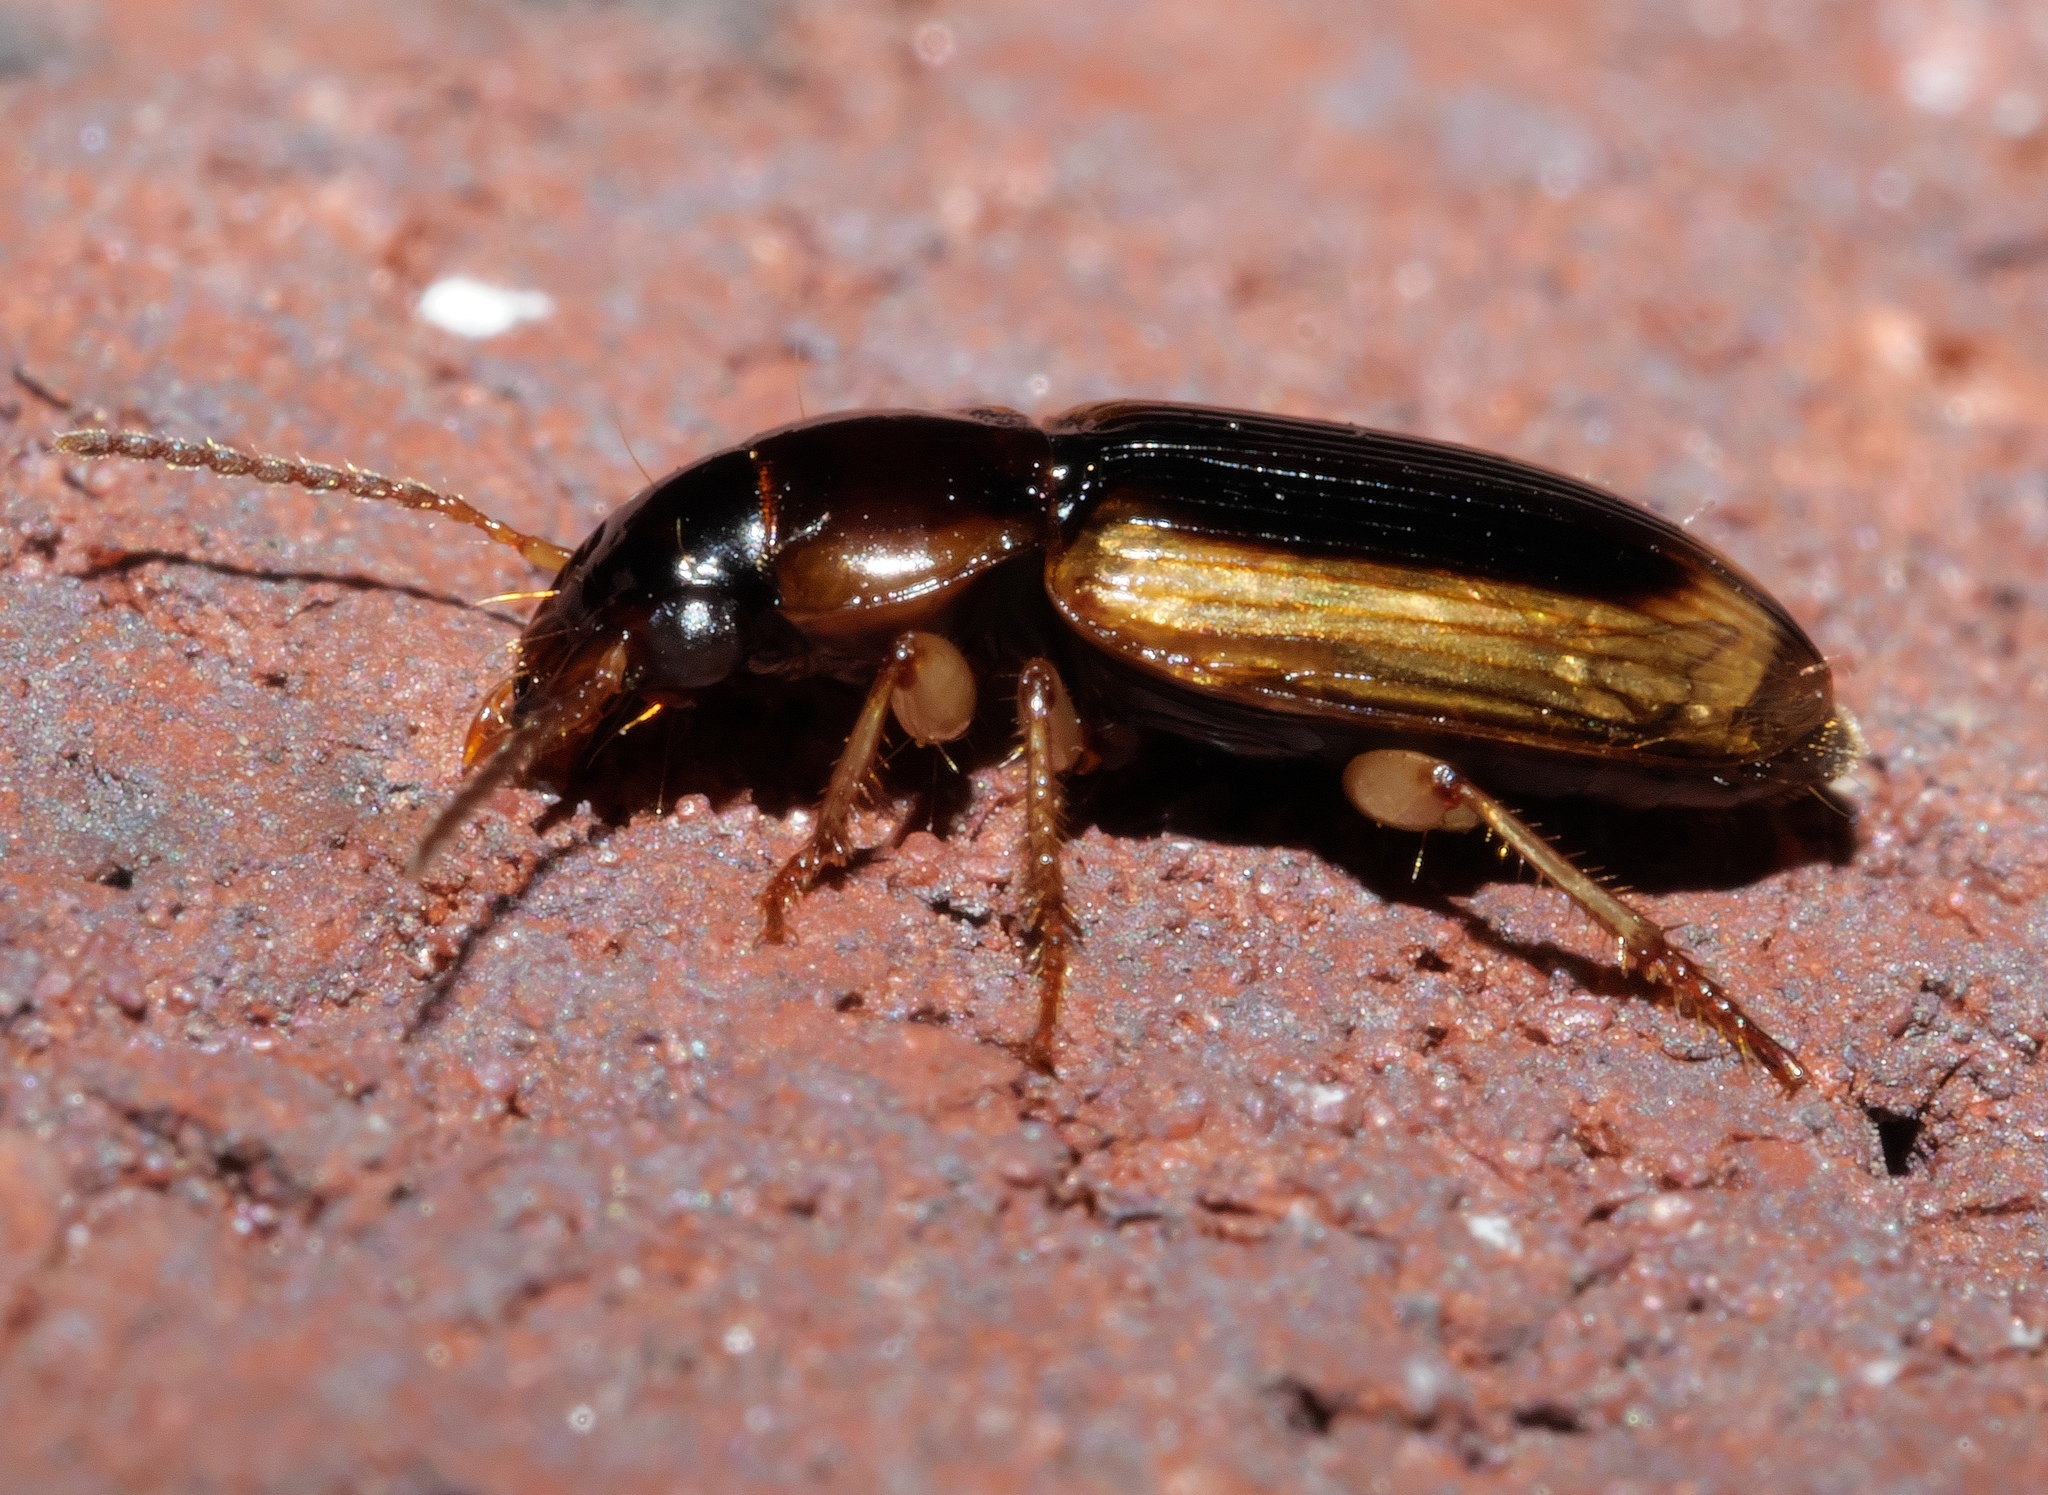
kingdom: Animalia
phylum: Arthropoda
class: Insecta
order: Coleoptera
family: Carabidae
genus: Stenolophus
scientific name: Stenolophus lecontei
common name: Leconte's seedcorn beetle
